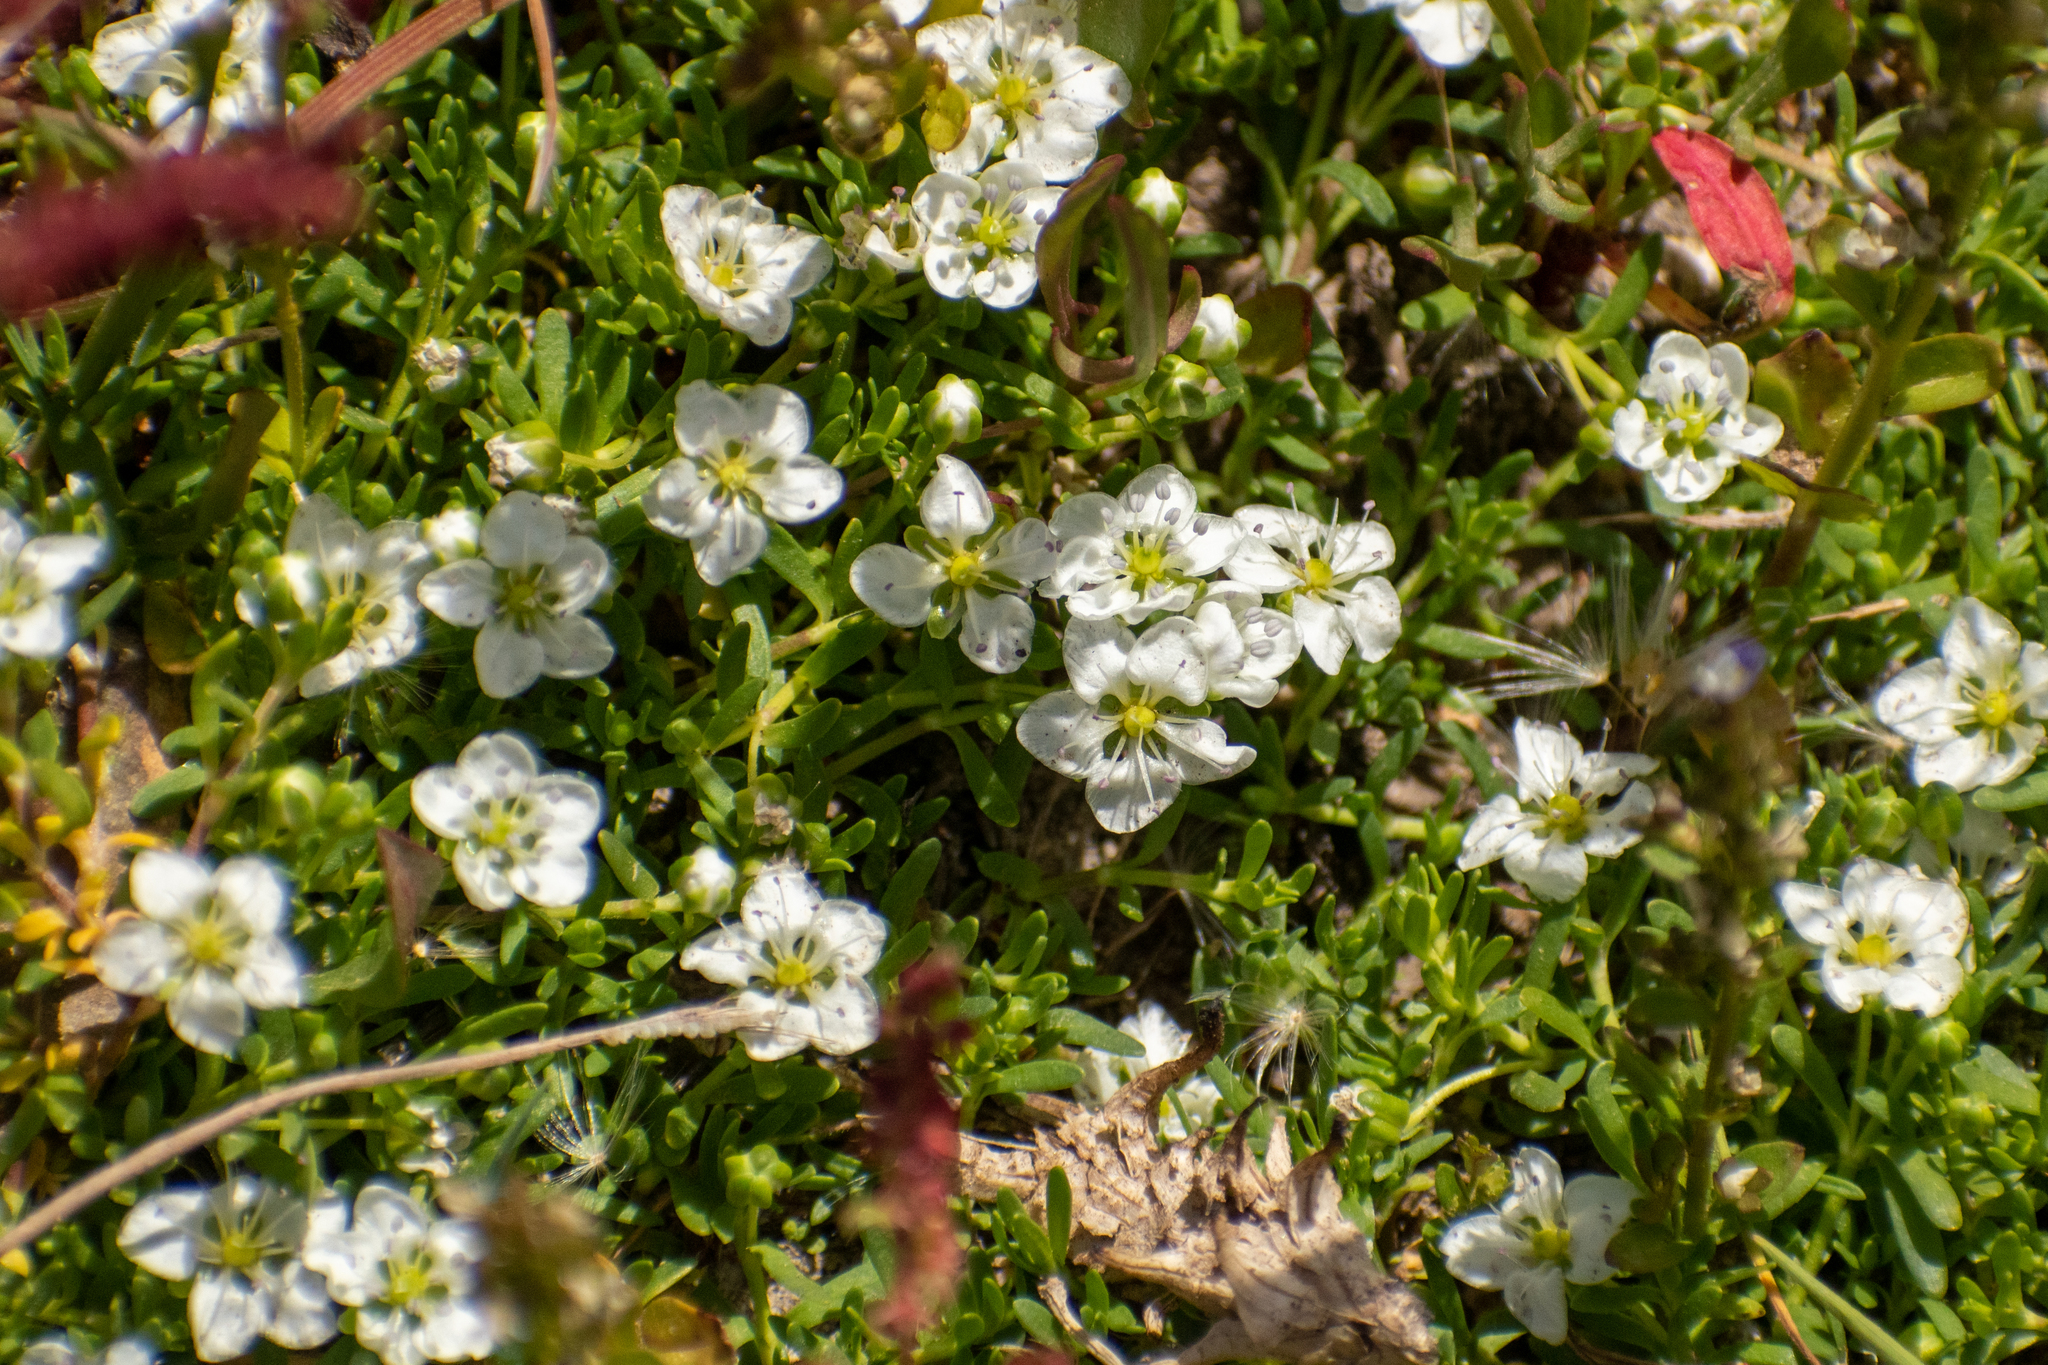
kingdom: Plantae
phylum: Tracheophyta
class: Magnoliopsida
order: Caryophyllales
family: Caryophyllaceae
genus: Arenaria
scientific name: Arenaria serpens
